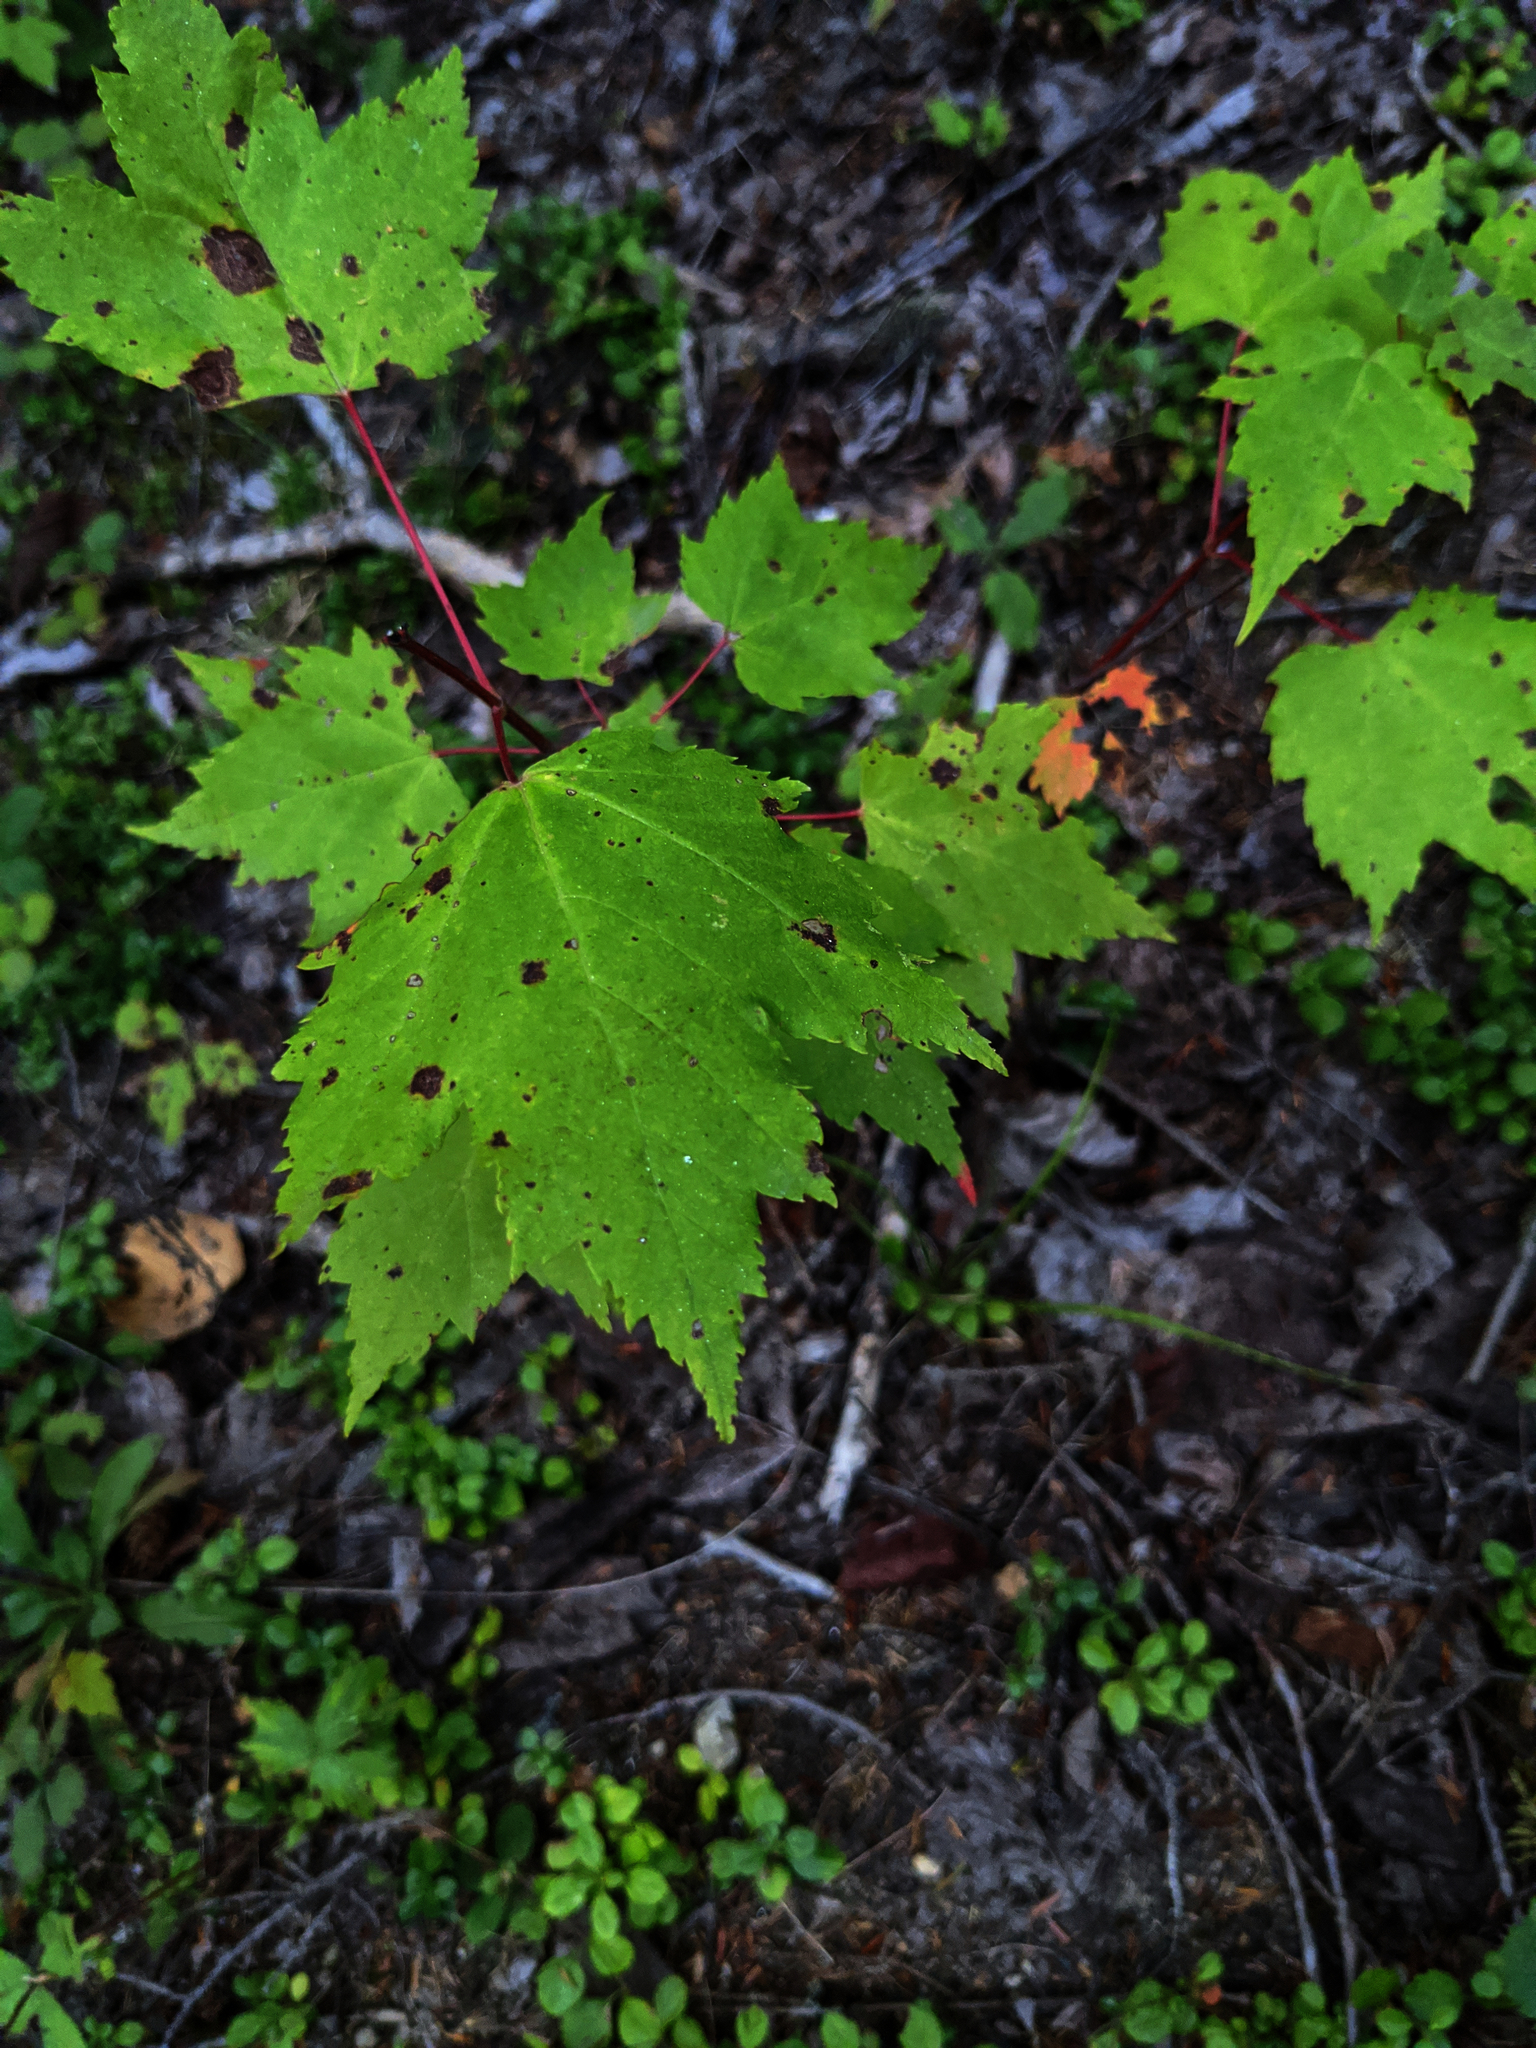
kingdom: Plantae
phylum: Tracheophyta
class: Magnoliopsida
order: Sapindales
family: Sapindaceae
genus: Acer
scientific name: Acer rubrum
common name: Red maple
